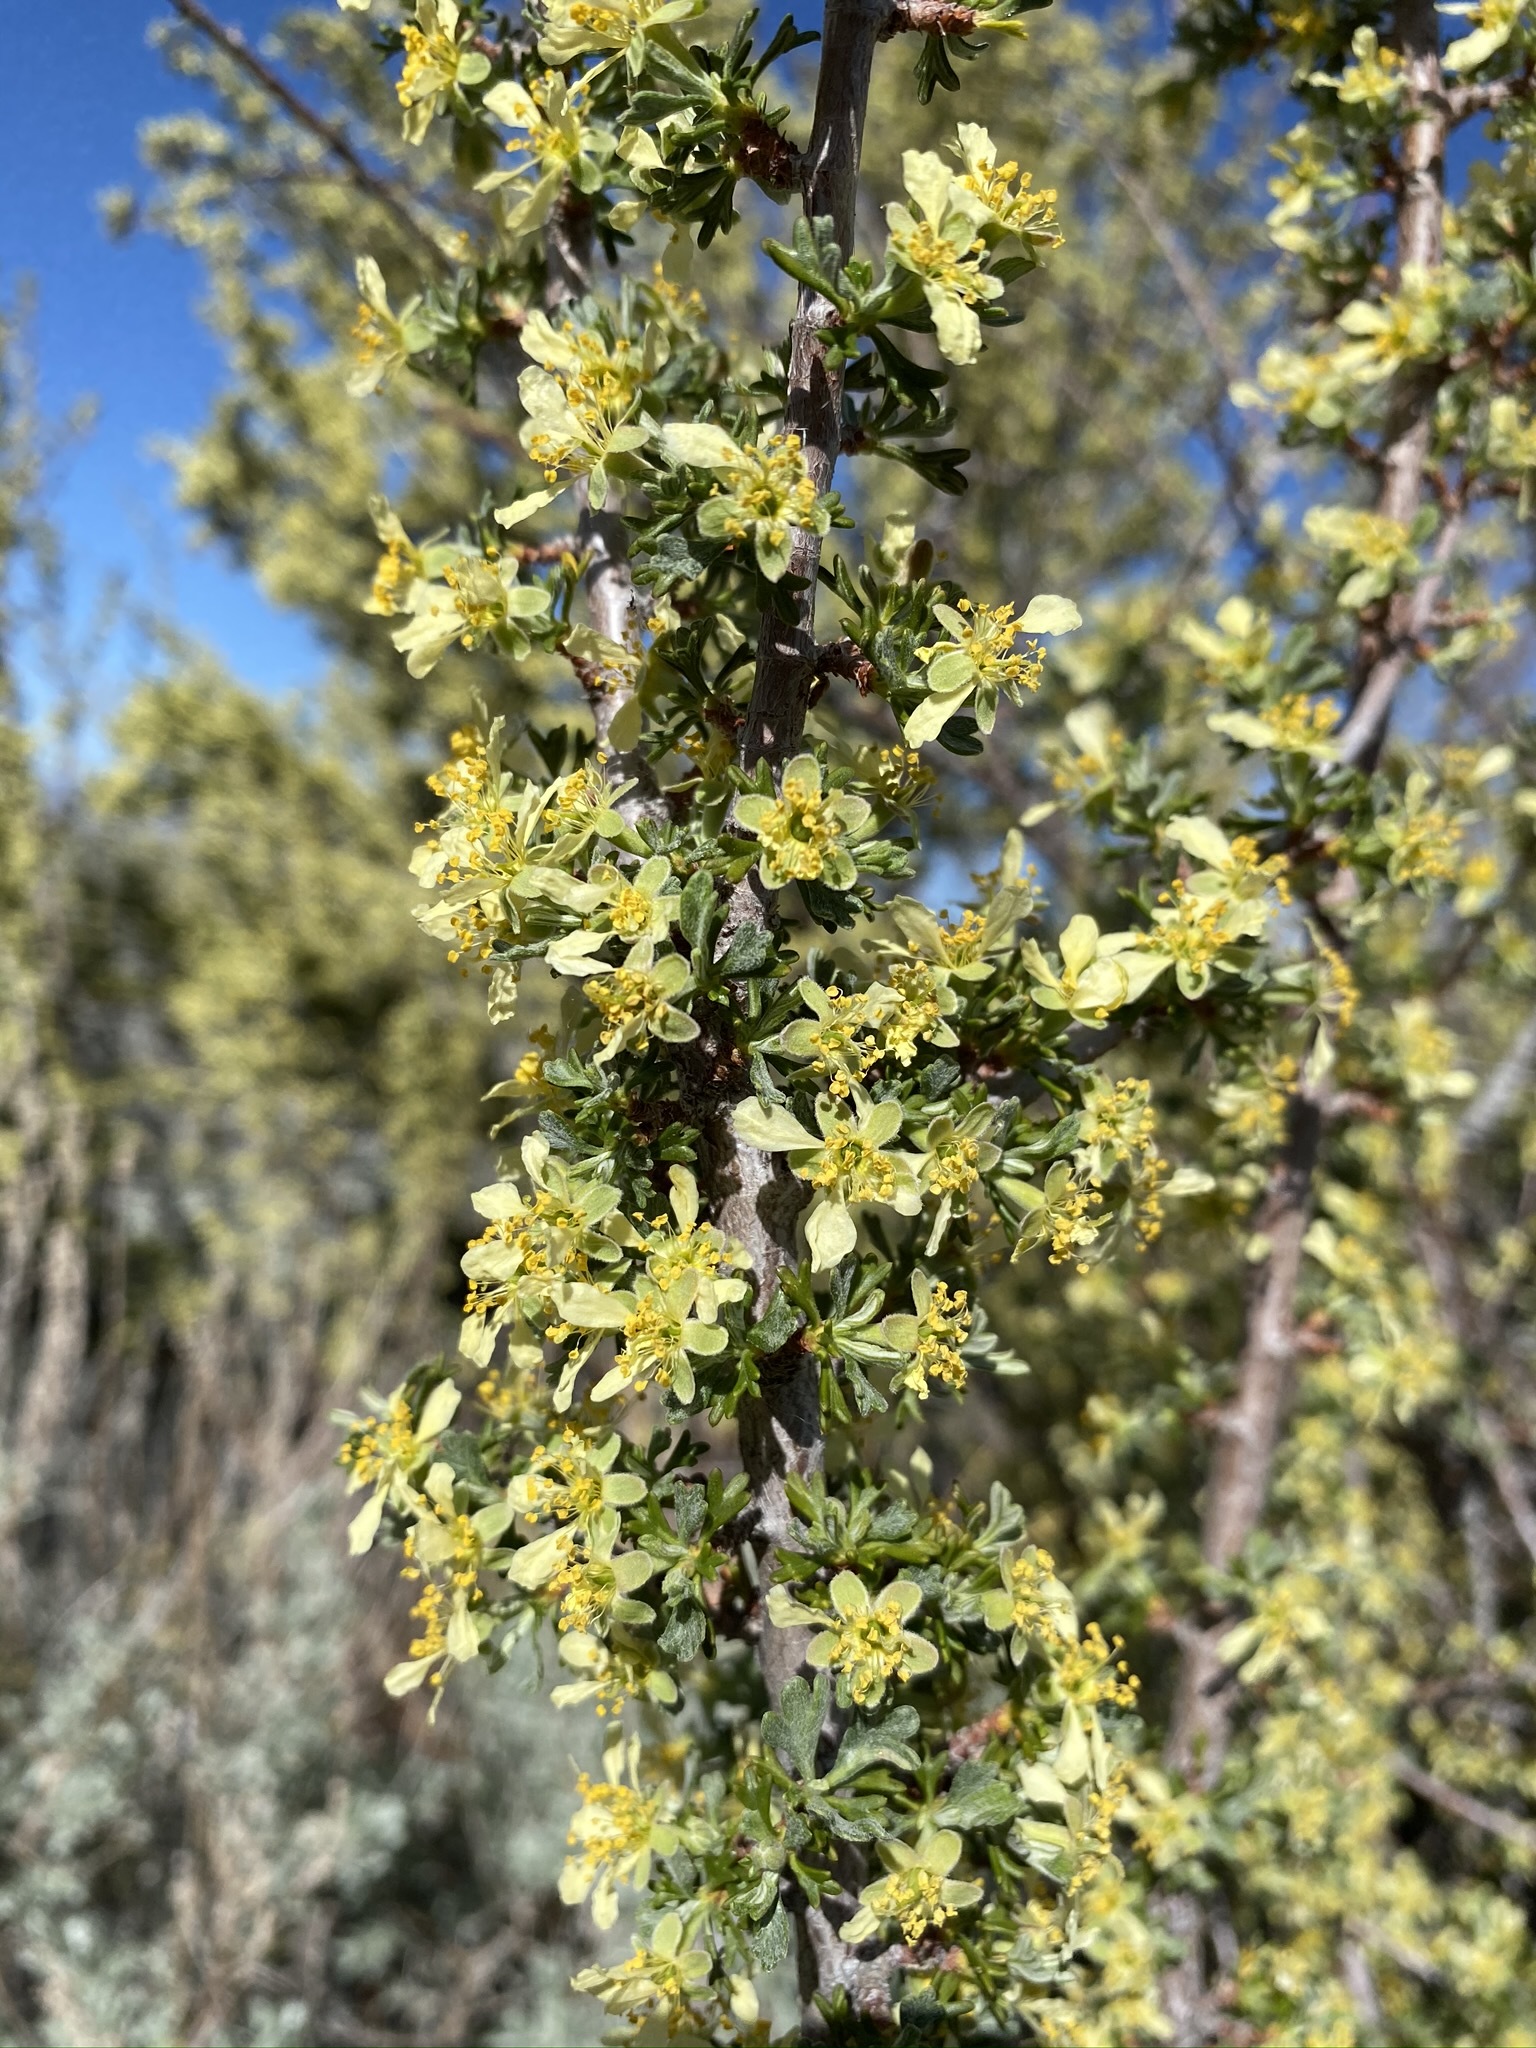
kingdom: Plantae
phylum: Tracheophyta
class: Magnoliopsida
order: Rosales
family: Rosaceae
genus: Purshia
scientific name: Purshia tridentata
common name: Antelope bitterbrush
